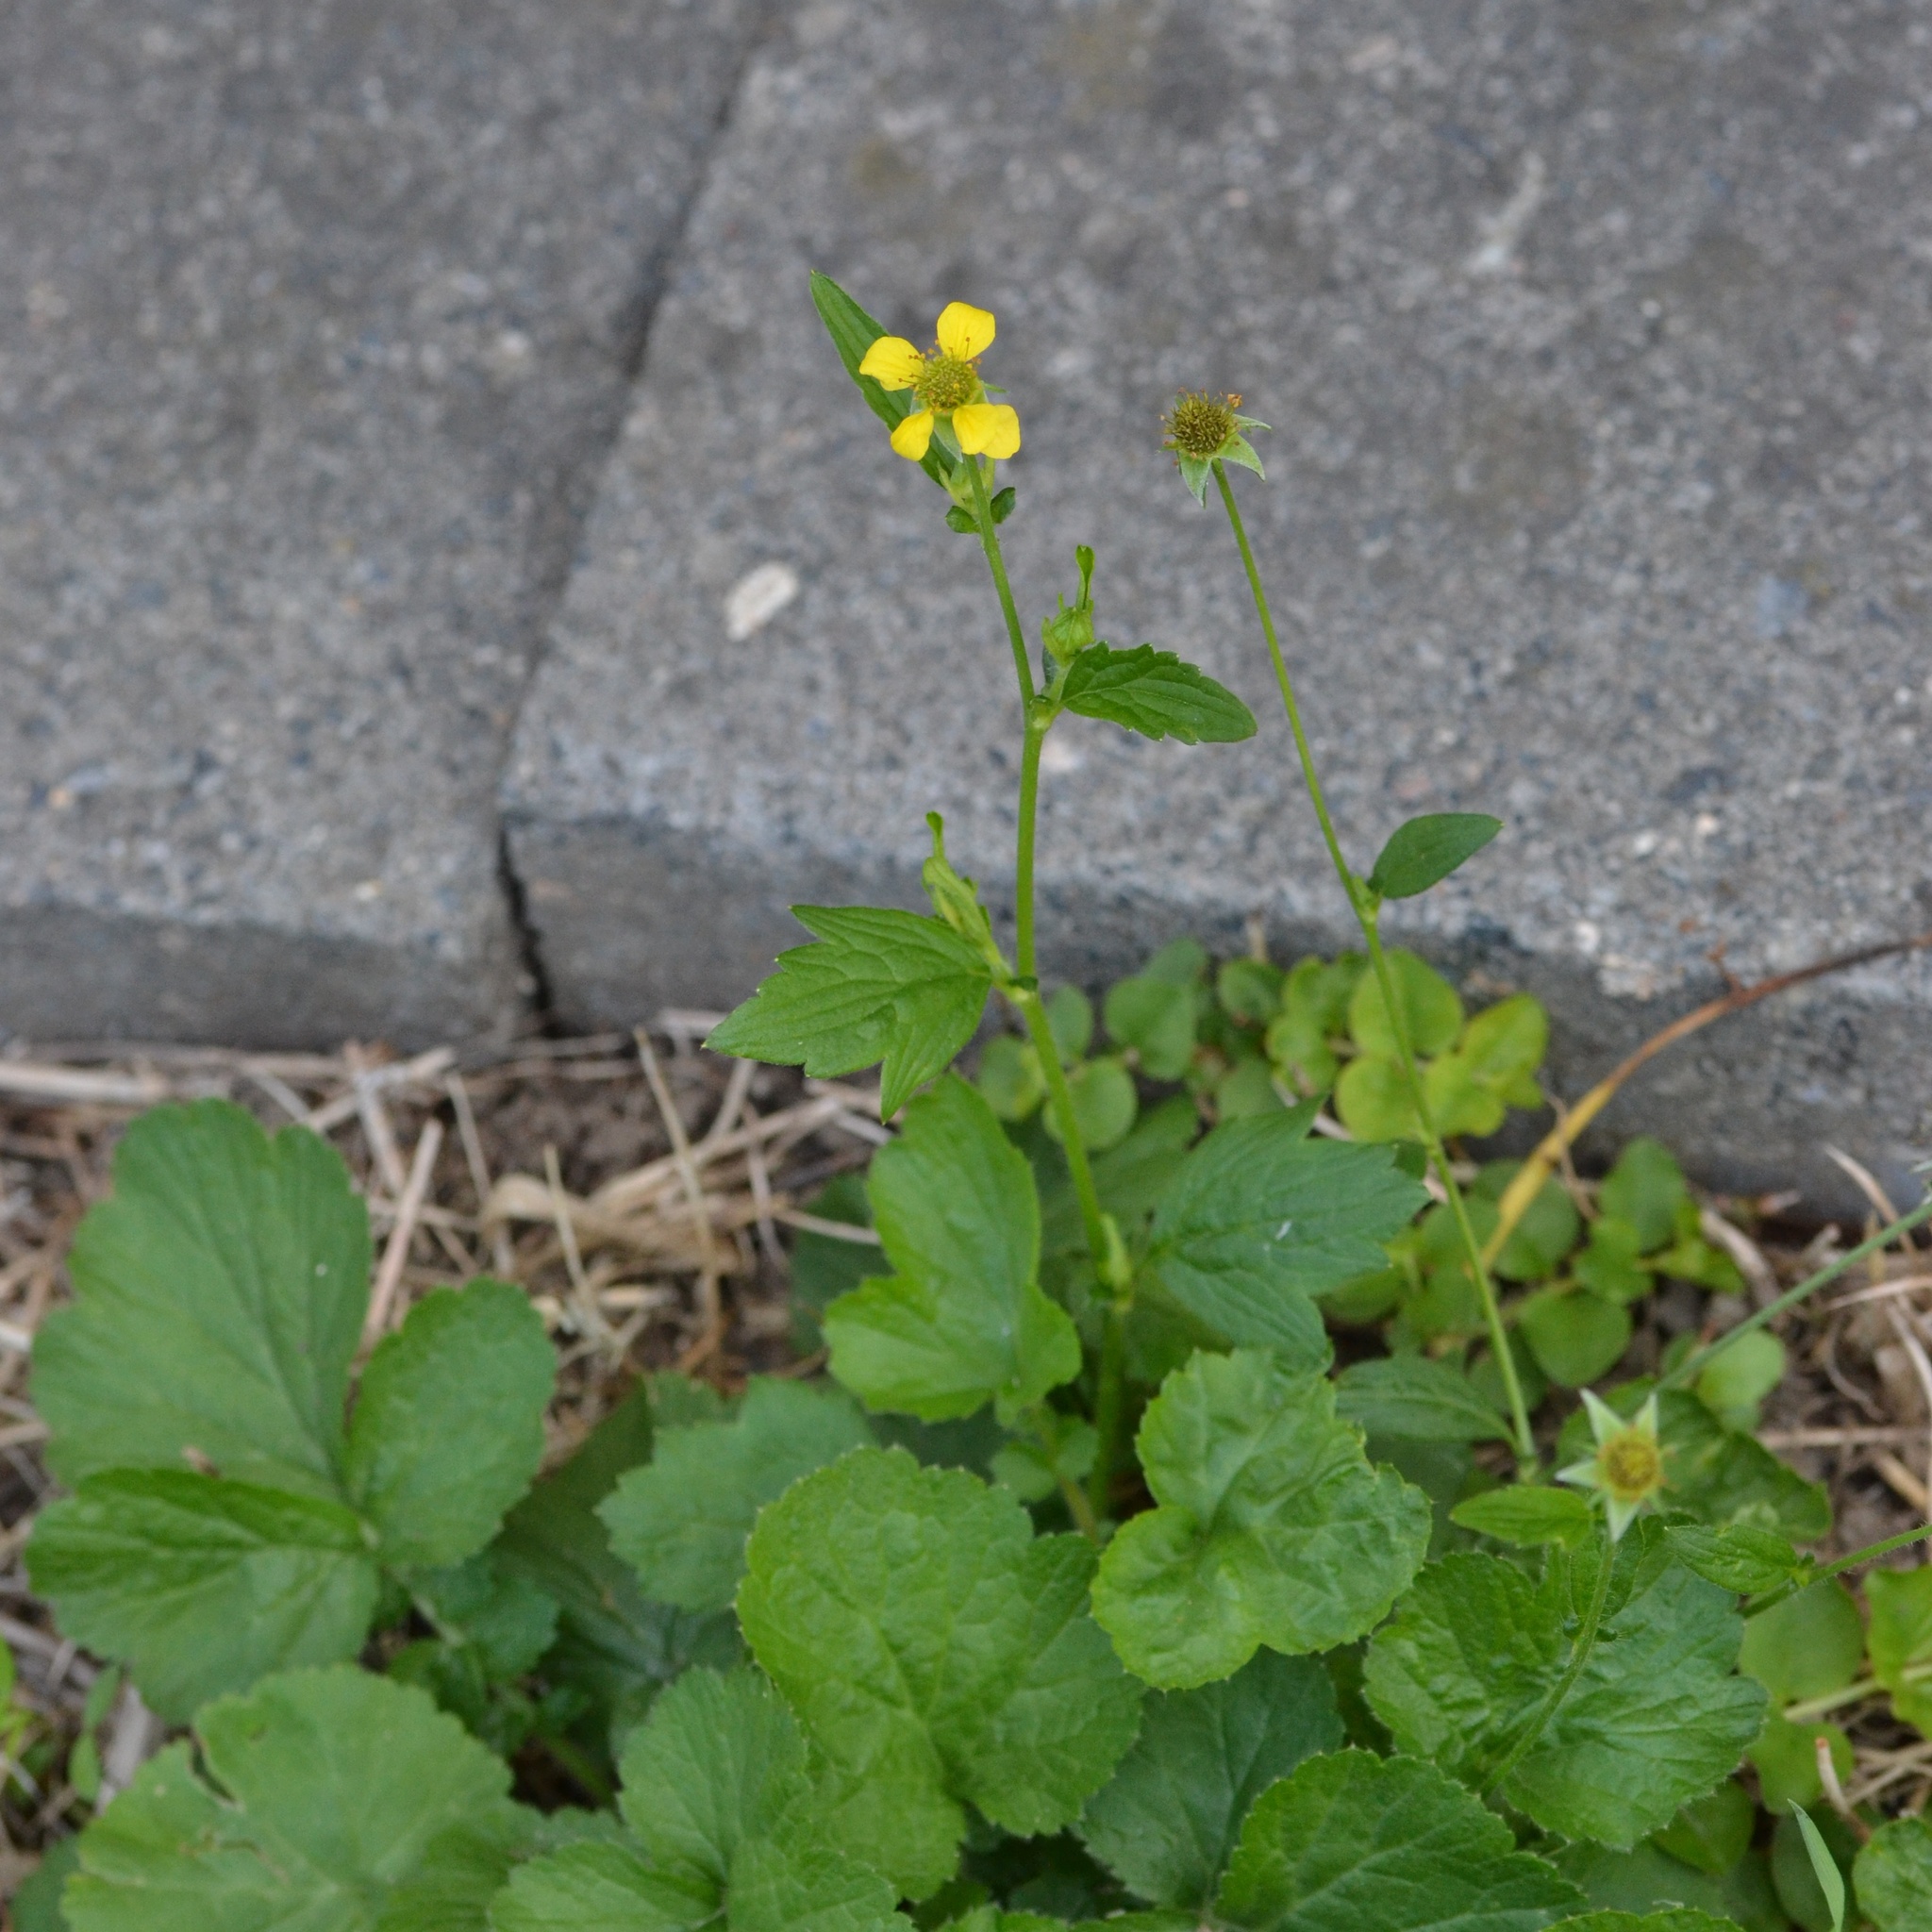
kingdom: Plantae
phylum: Tracheophyta
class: Magnoliopsida
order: Rosales
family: Rosaceae
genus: Geum
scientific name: Geum urbanum
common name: Wood avens
